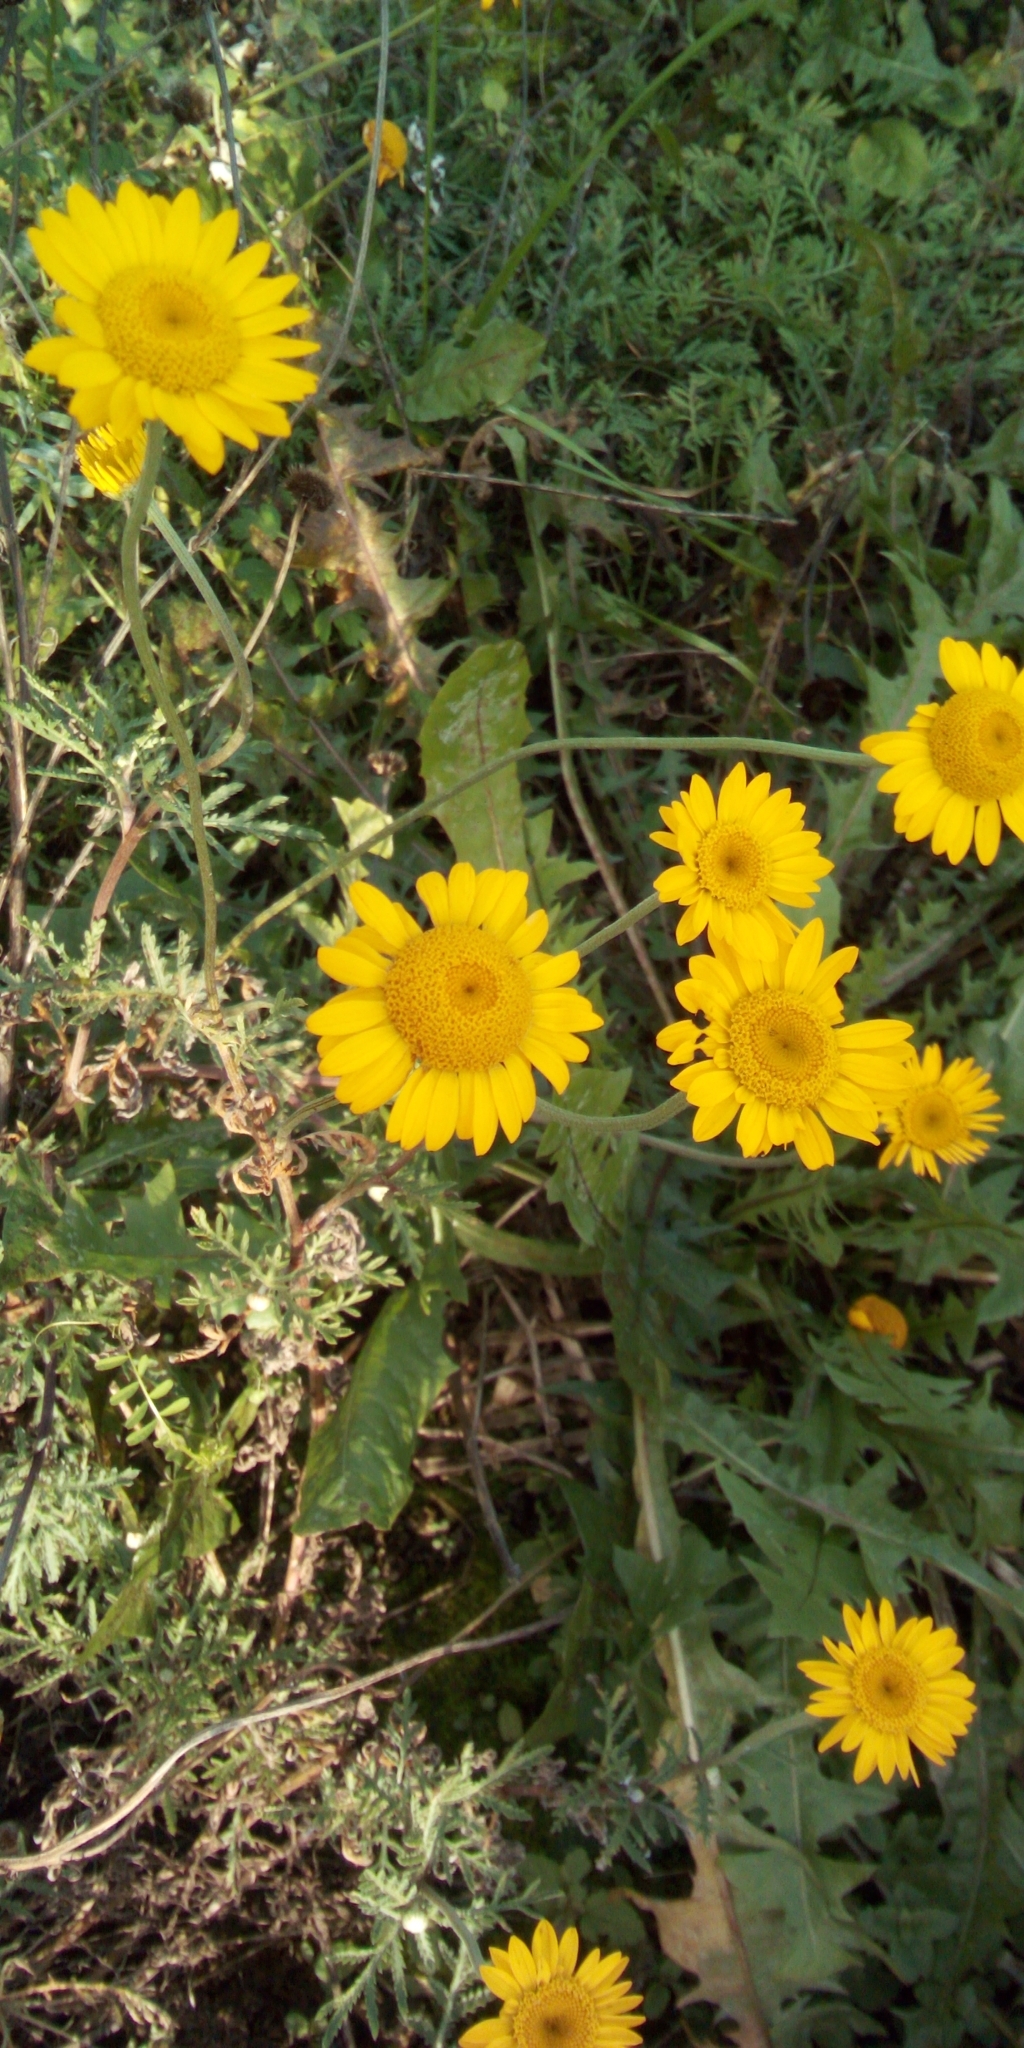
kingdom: Plantae
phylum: Tracheophyta
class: Magnoliopsida
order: Asterales
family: Asteraceae
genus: Cota
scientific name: Cota tinctoria
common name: Golden chamomile
